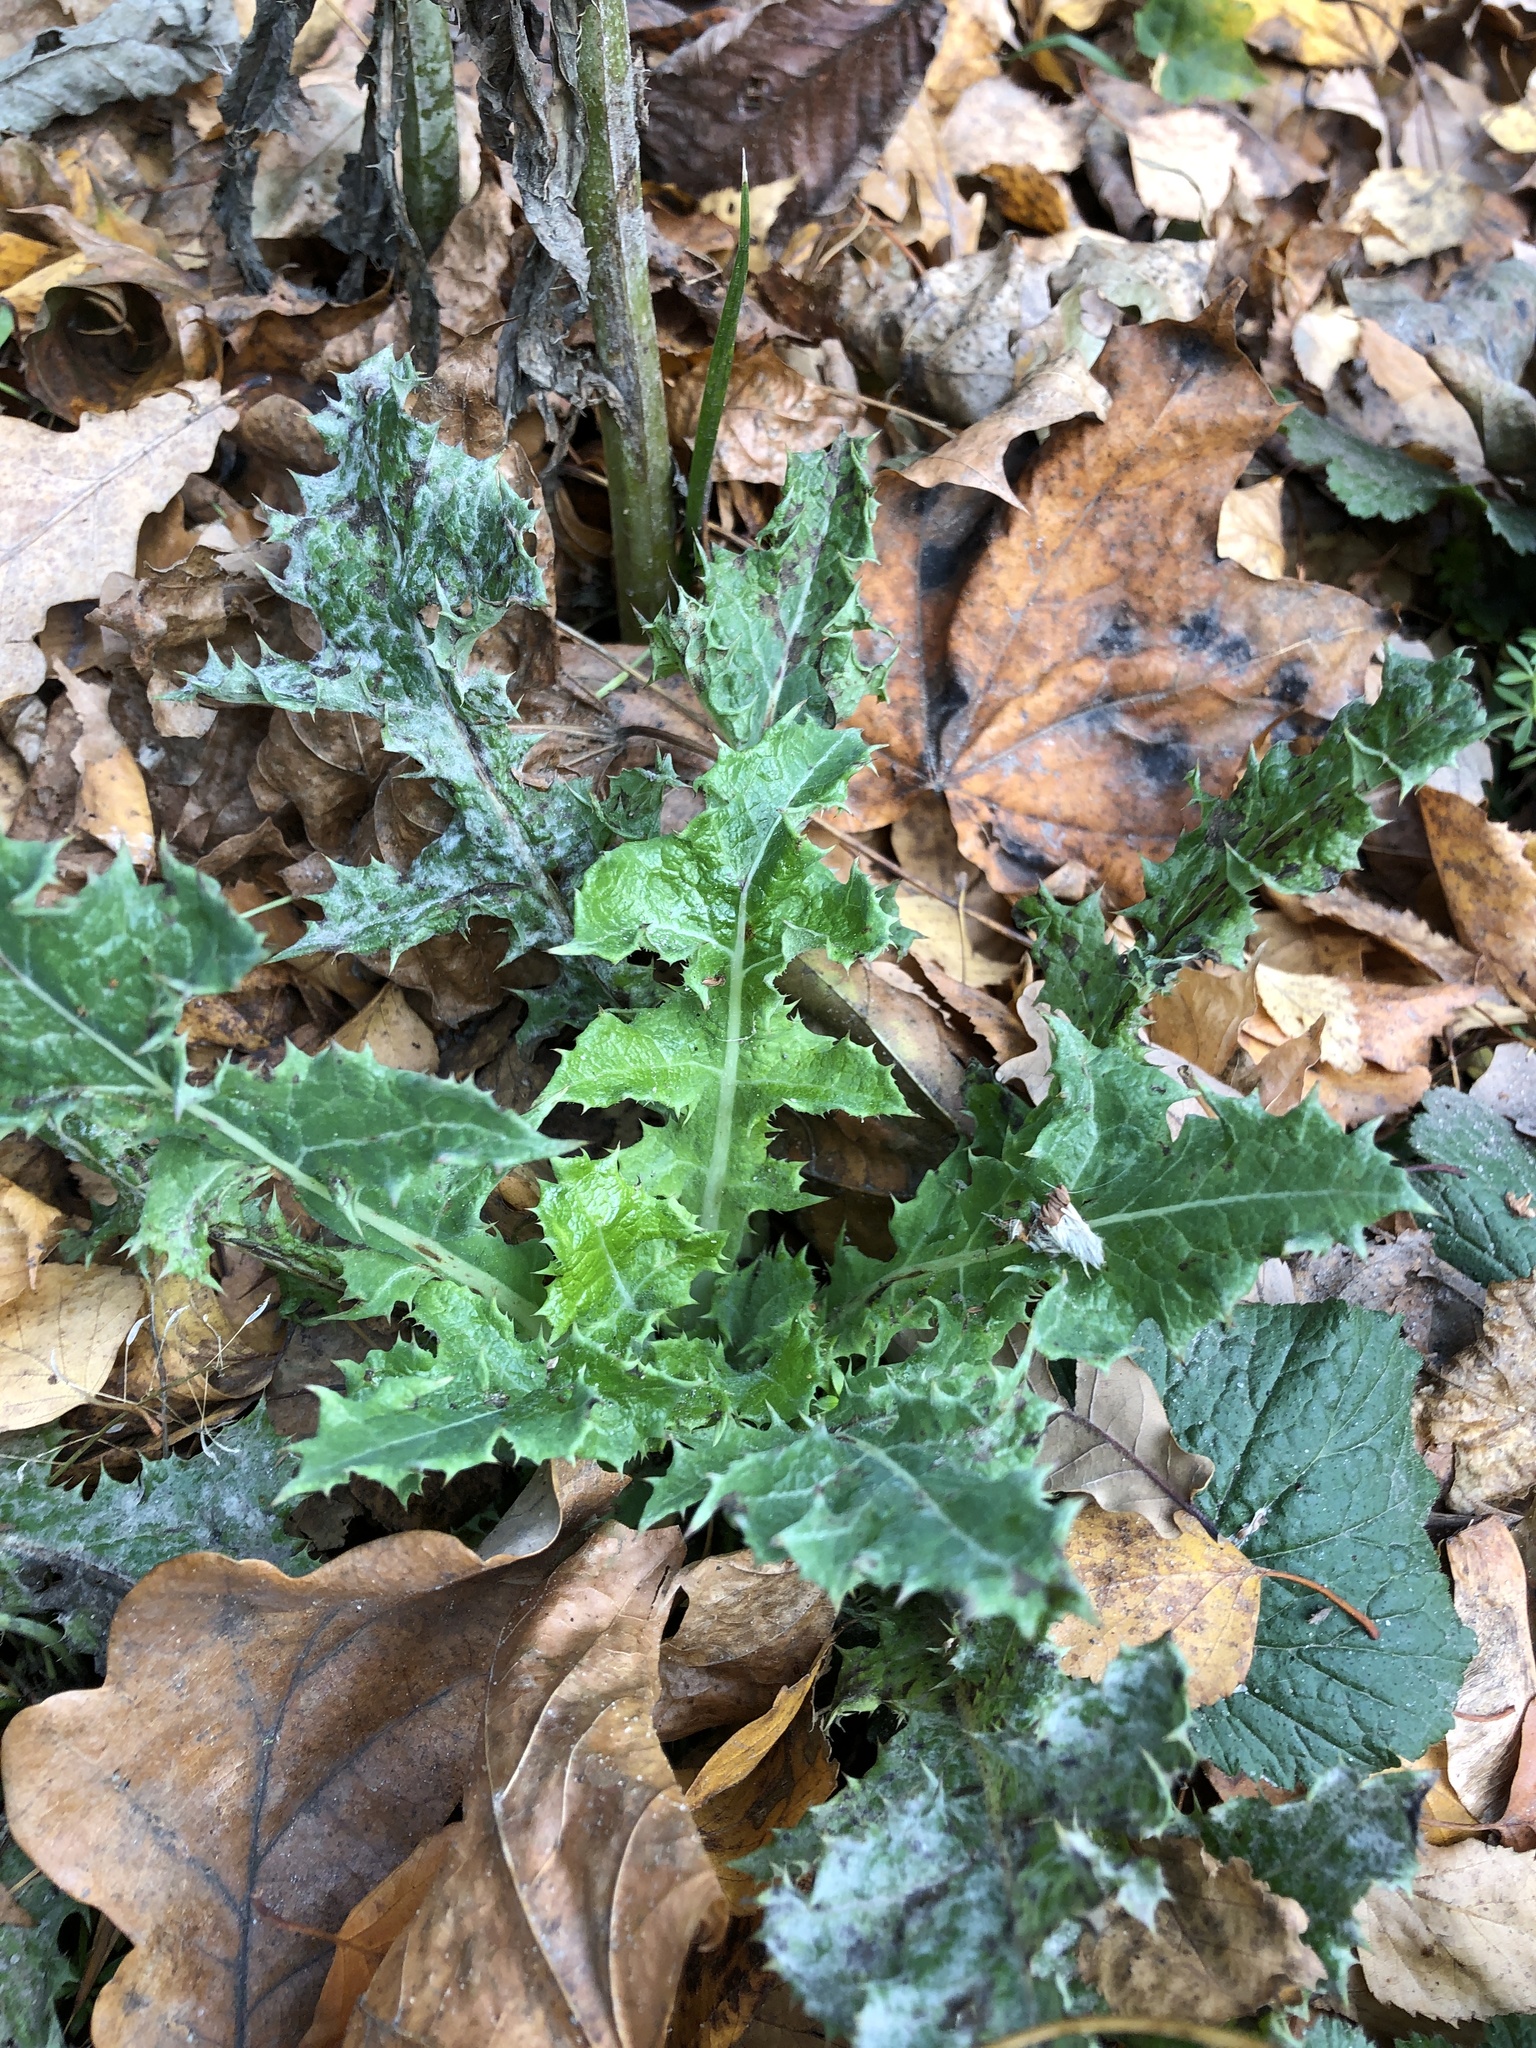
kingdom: Plantae
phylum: Tracheophyta
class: Magnoliopsida
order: Asterales
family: Asteraceae
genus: Sonchus
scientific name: Sonchus asper
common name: Prickly sow-thistle
